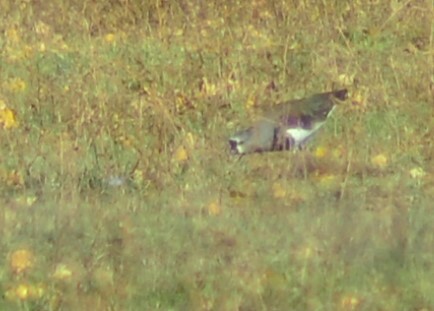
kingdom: Animalia
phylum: Chordata
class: Aves
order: Charadriiformes
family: Charadriidae
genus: Vanellus
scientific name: Vanellus chilensis
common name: Southern lapwing
